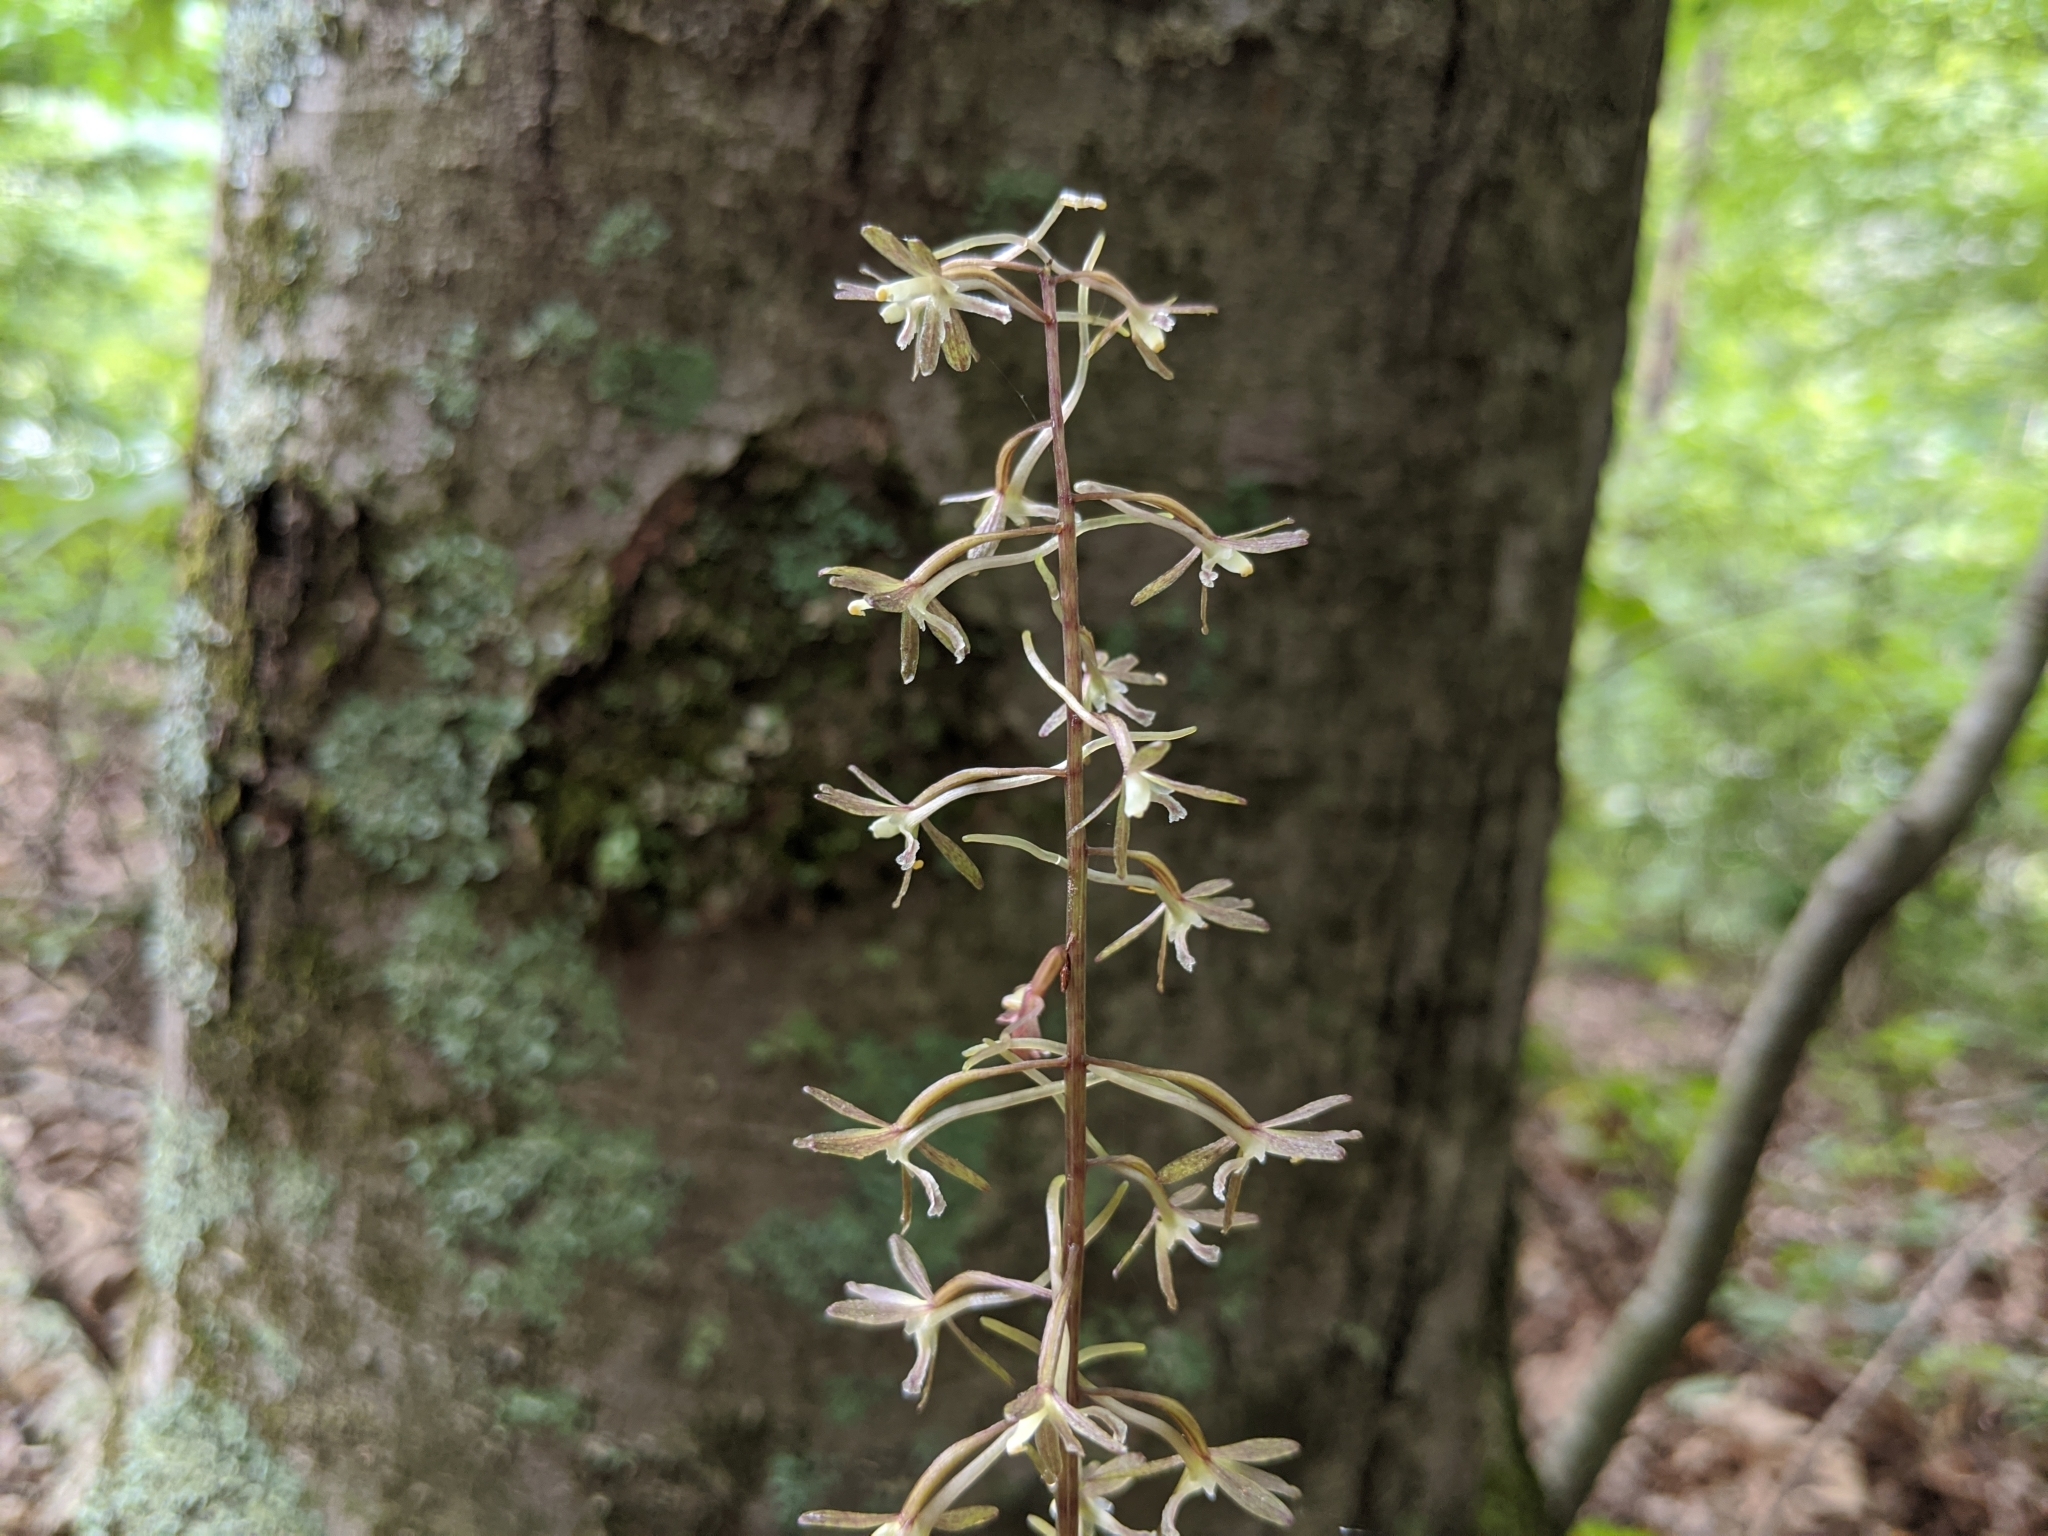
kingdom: Plantae
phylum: Tracheophyta
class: Liliopsida
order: Asparagales
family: Orchidaceae
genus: Tipularia
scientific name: Tipularia discolor
